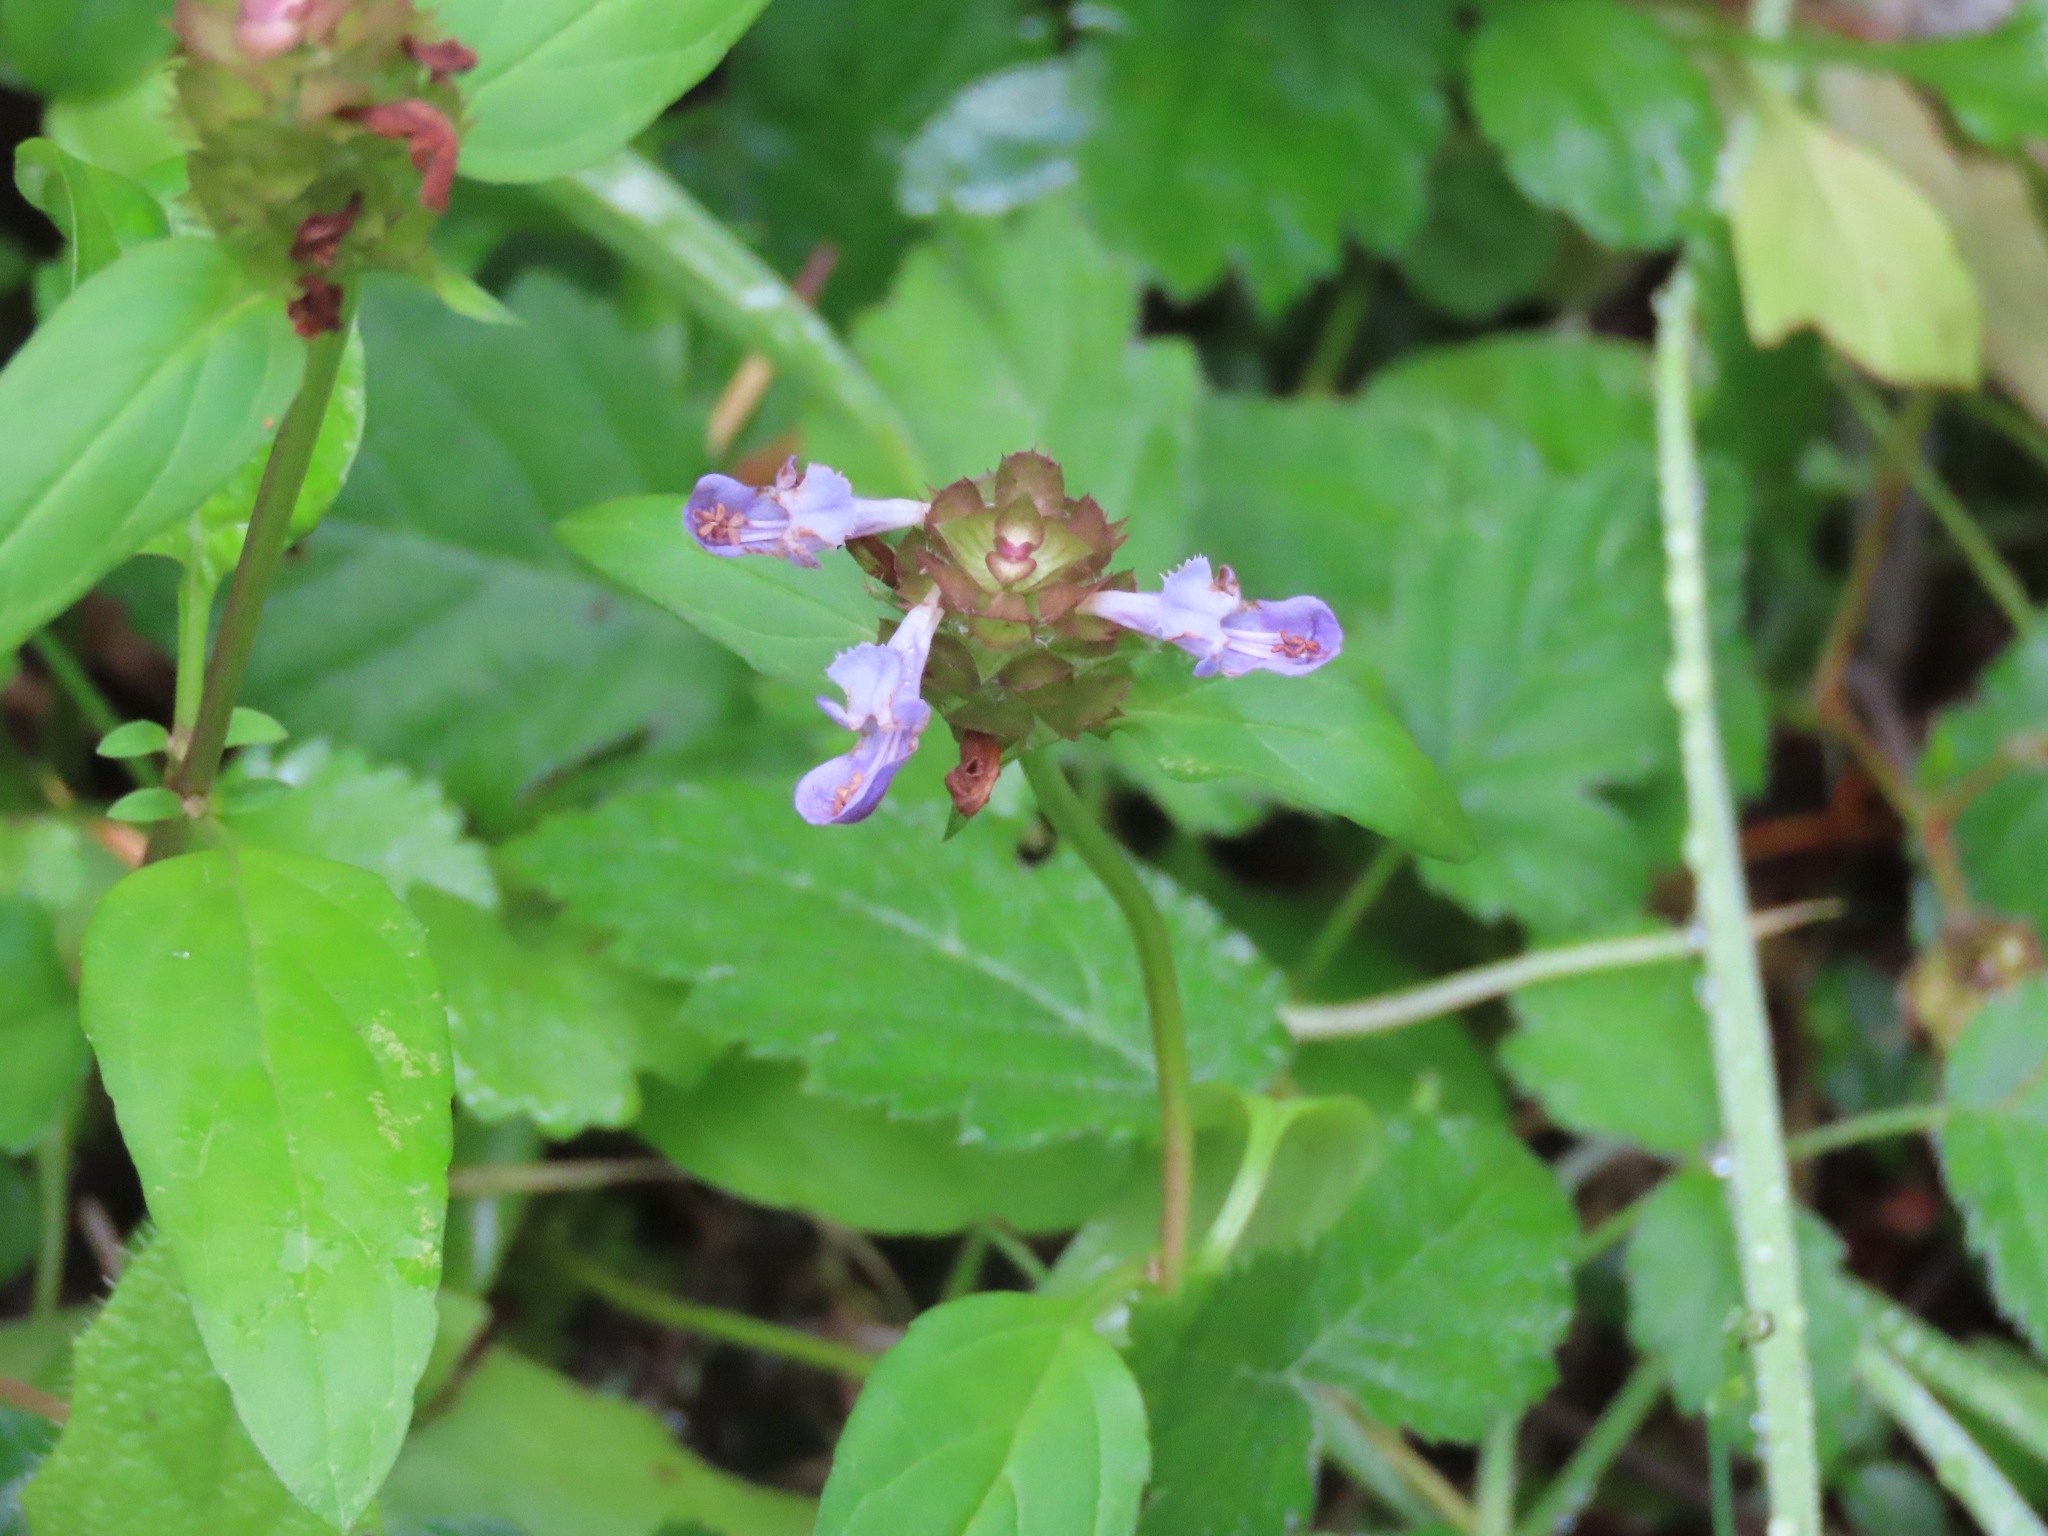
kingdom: Plantae
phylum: Tracheophyta
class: Magnoliopsida
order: Lamiales
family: Lamiaceae
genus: Prunella
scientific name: Prunella vulgaris
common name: Heal-all
